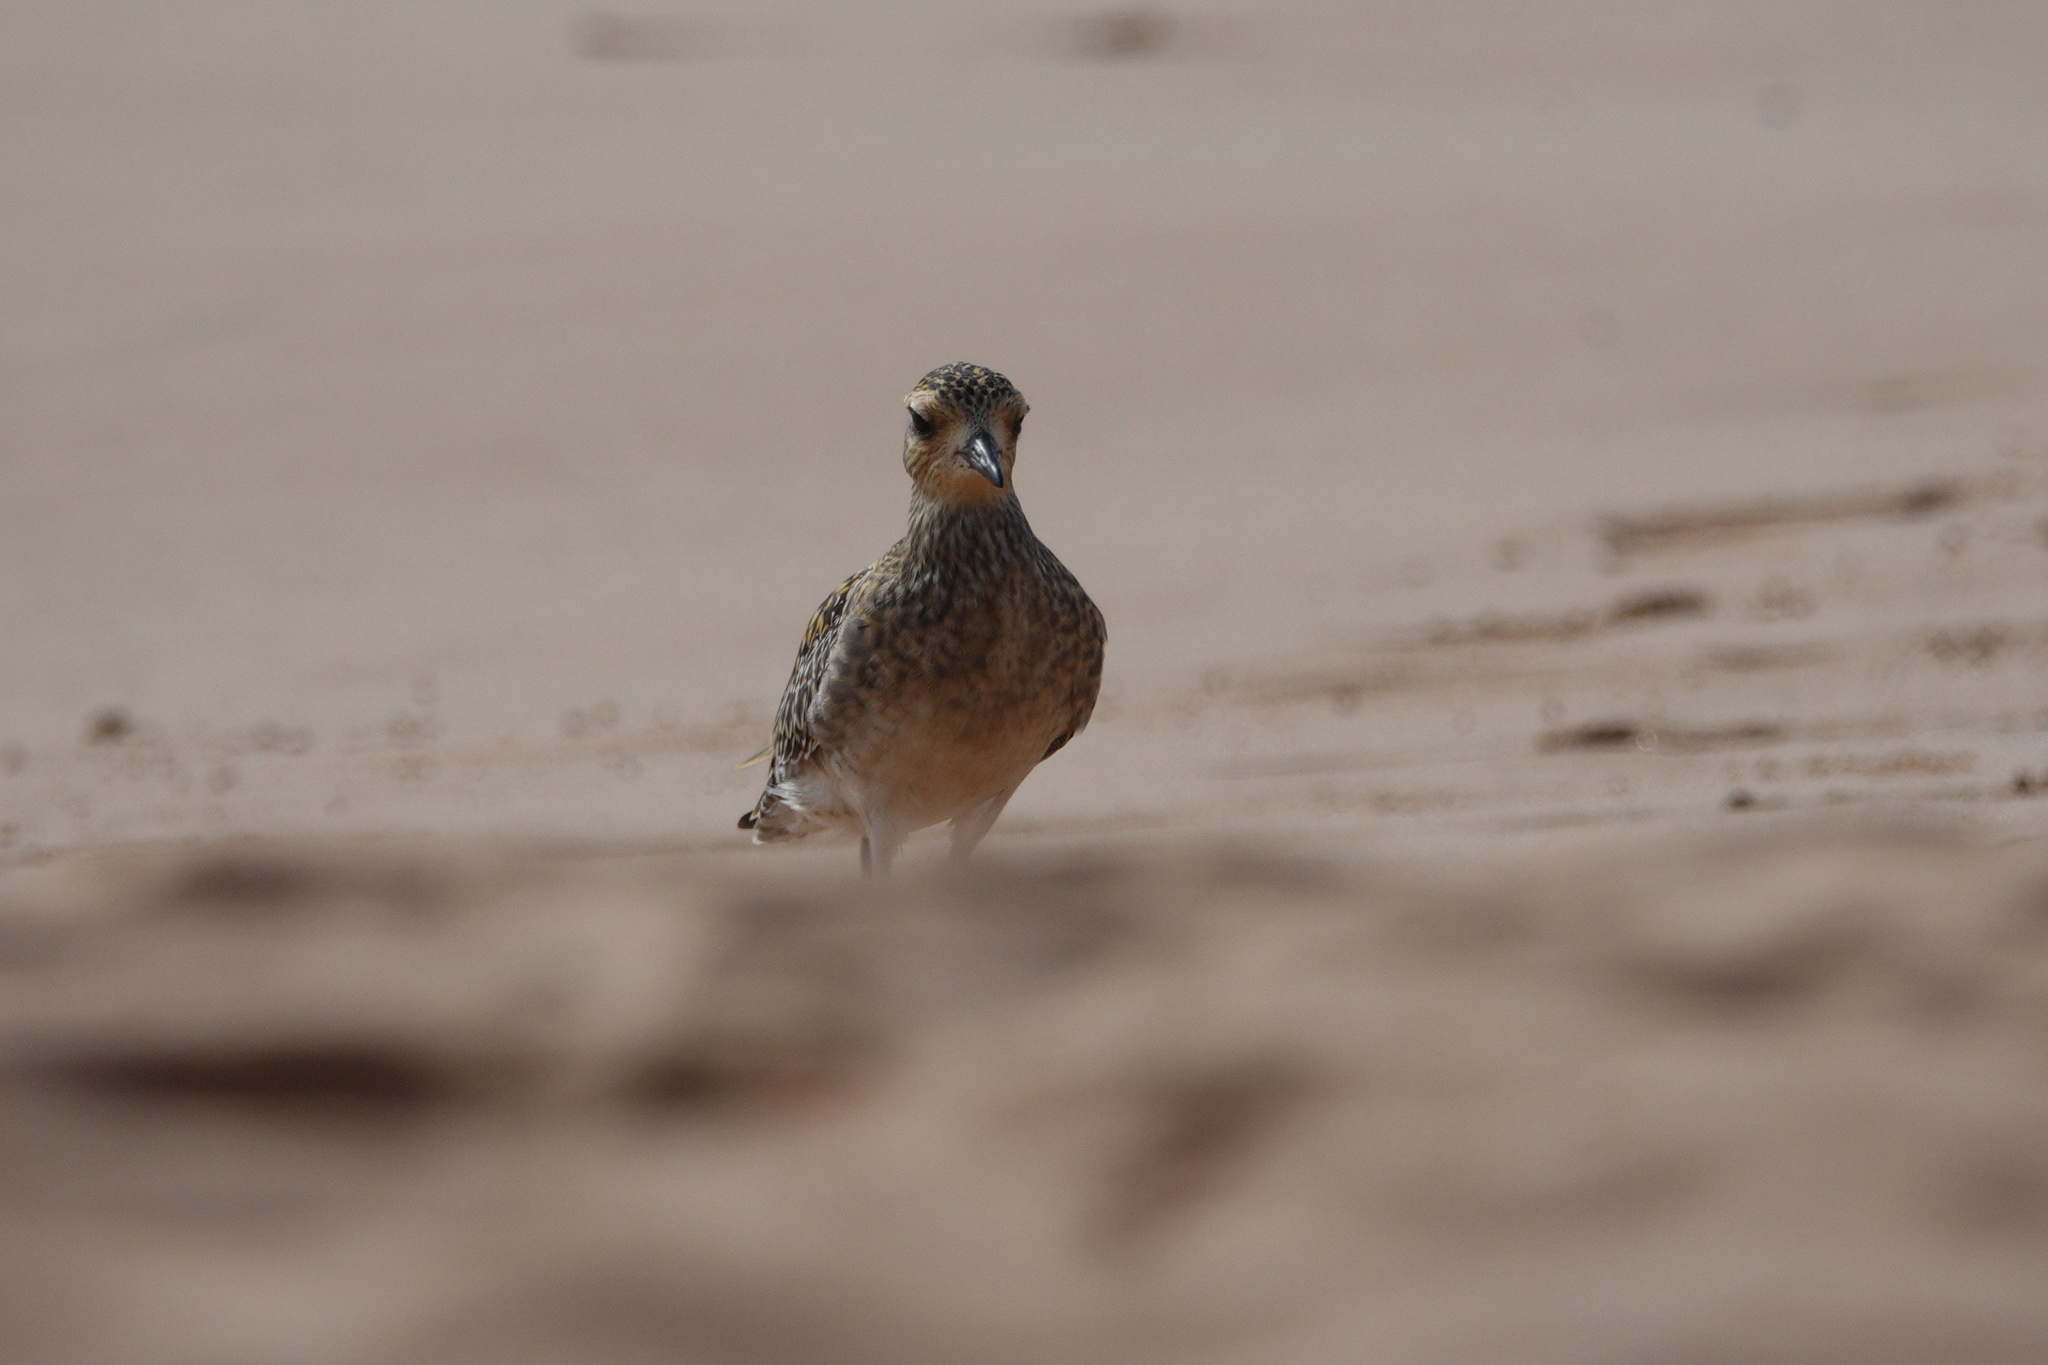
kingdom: Animalia
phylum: Chordata
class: Aves
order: Charadriiformes
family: Charadriidae
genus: Pluvialis
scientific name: Pluvialis fulva
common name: Pacific golden plover
